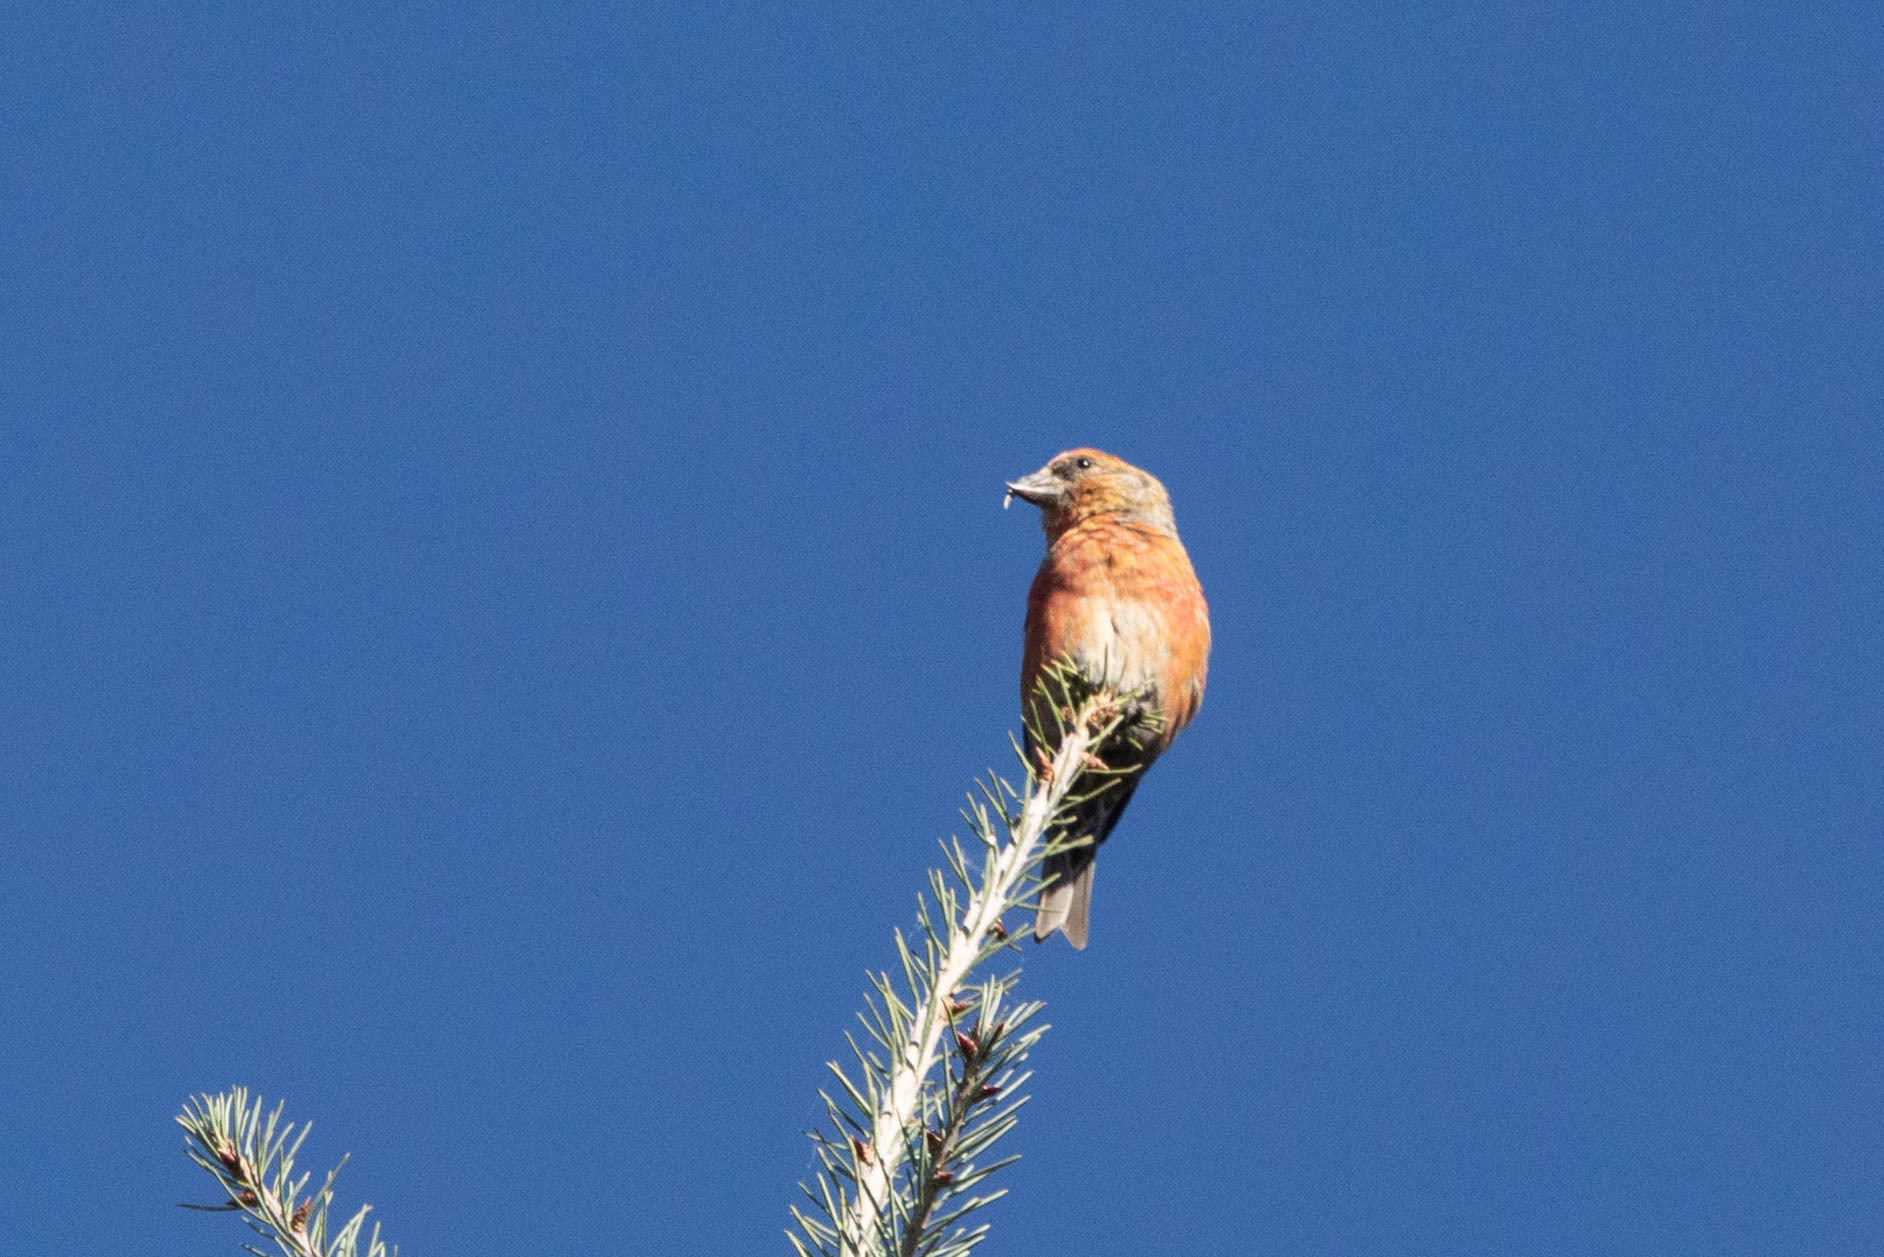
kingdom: Animalia
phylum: Chordata
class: Aves
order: Passeriformes
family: Fringillidae
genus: Loxia
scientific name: Loxia curvirostra
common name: Red crossbill
